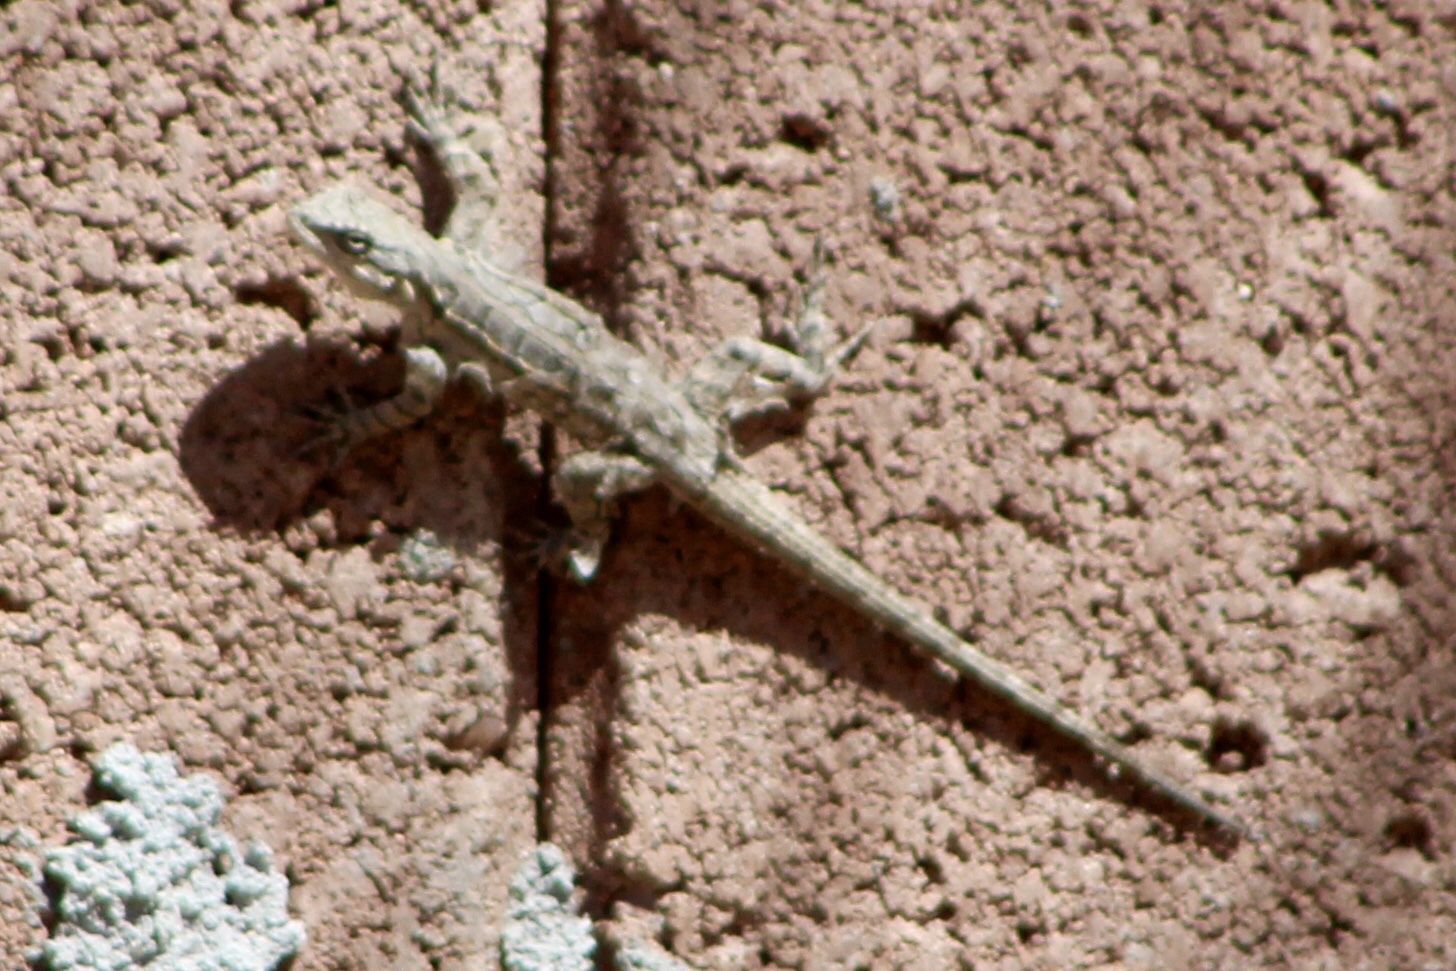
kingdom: Animalia
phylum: Chordata
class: Squamata
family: Phrynosomatidae
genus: Urosaurus
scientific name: Urosaurus ornatus
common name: Ornate tree lizard
